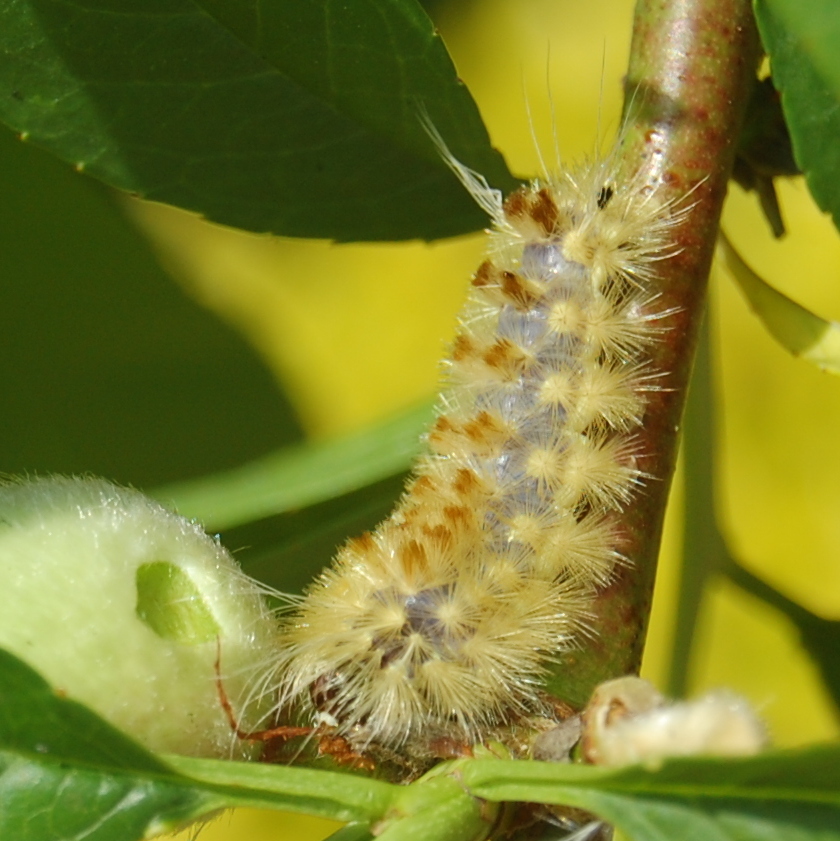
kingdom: Animalia
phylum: Arthropoda
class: Insecta
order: Lepidoptera
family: Erebidae
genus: Lophocampa
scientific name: Lophocampa catenulata
